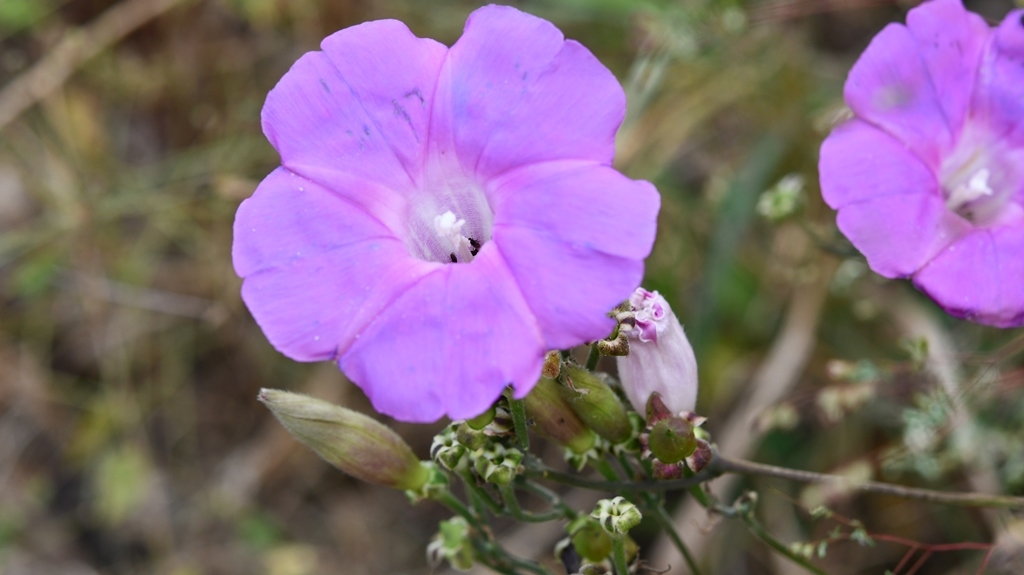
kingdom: Plantae
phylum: Tracheophyta
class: Magnoliopsida
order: Solanales
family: Convolvulaceae
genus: Ipomoea
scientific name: Ipomoea leucotricha
